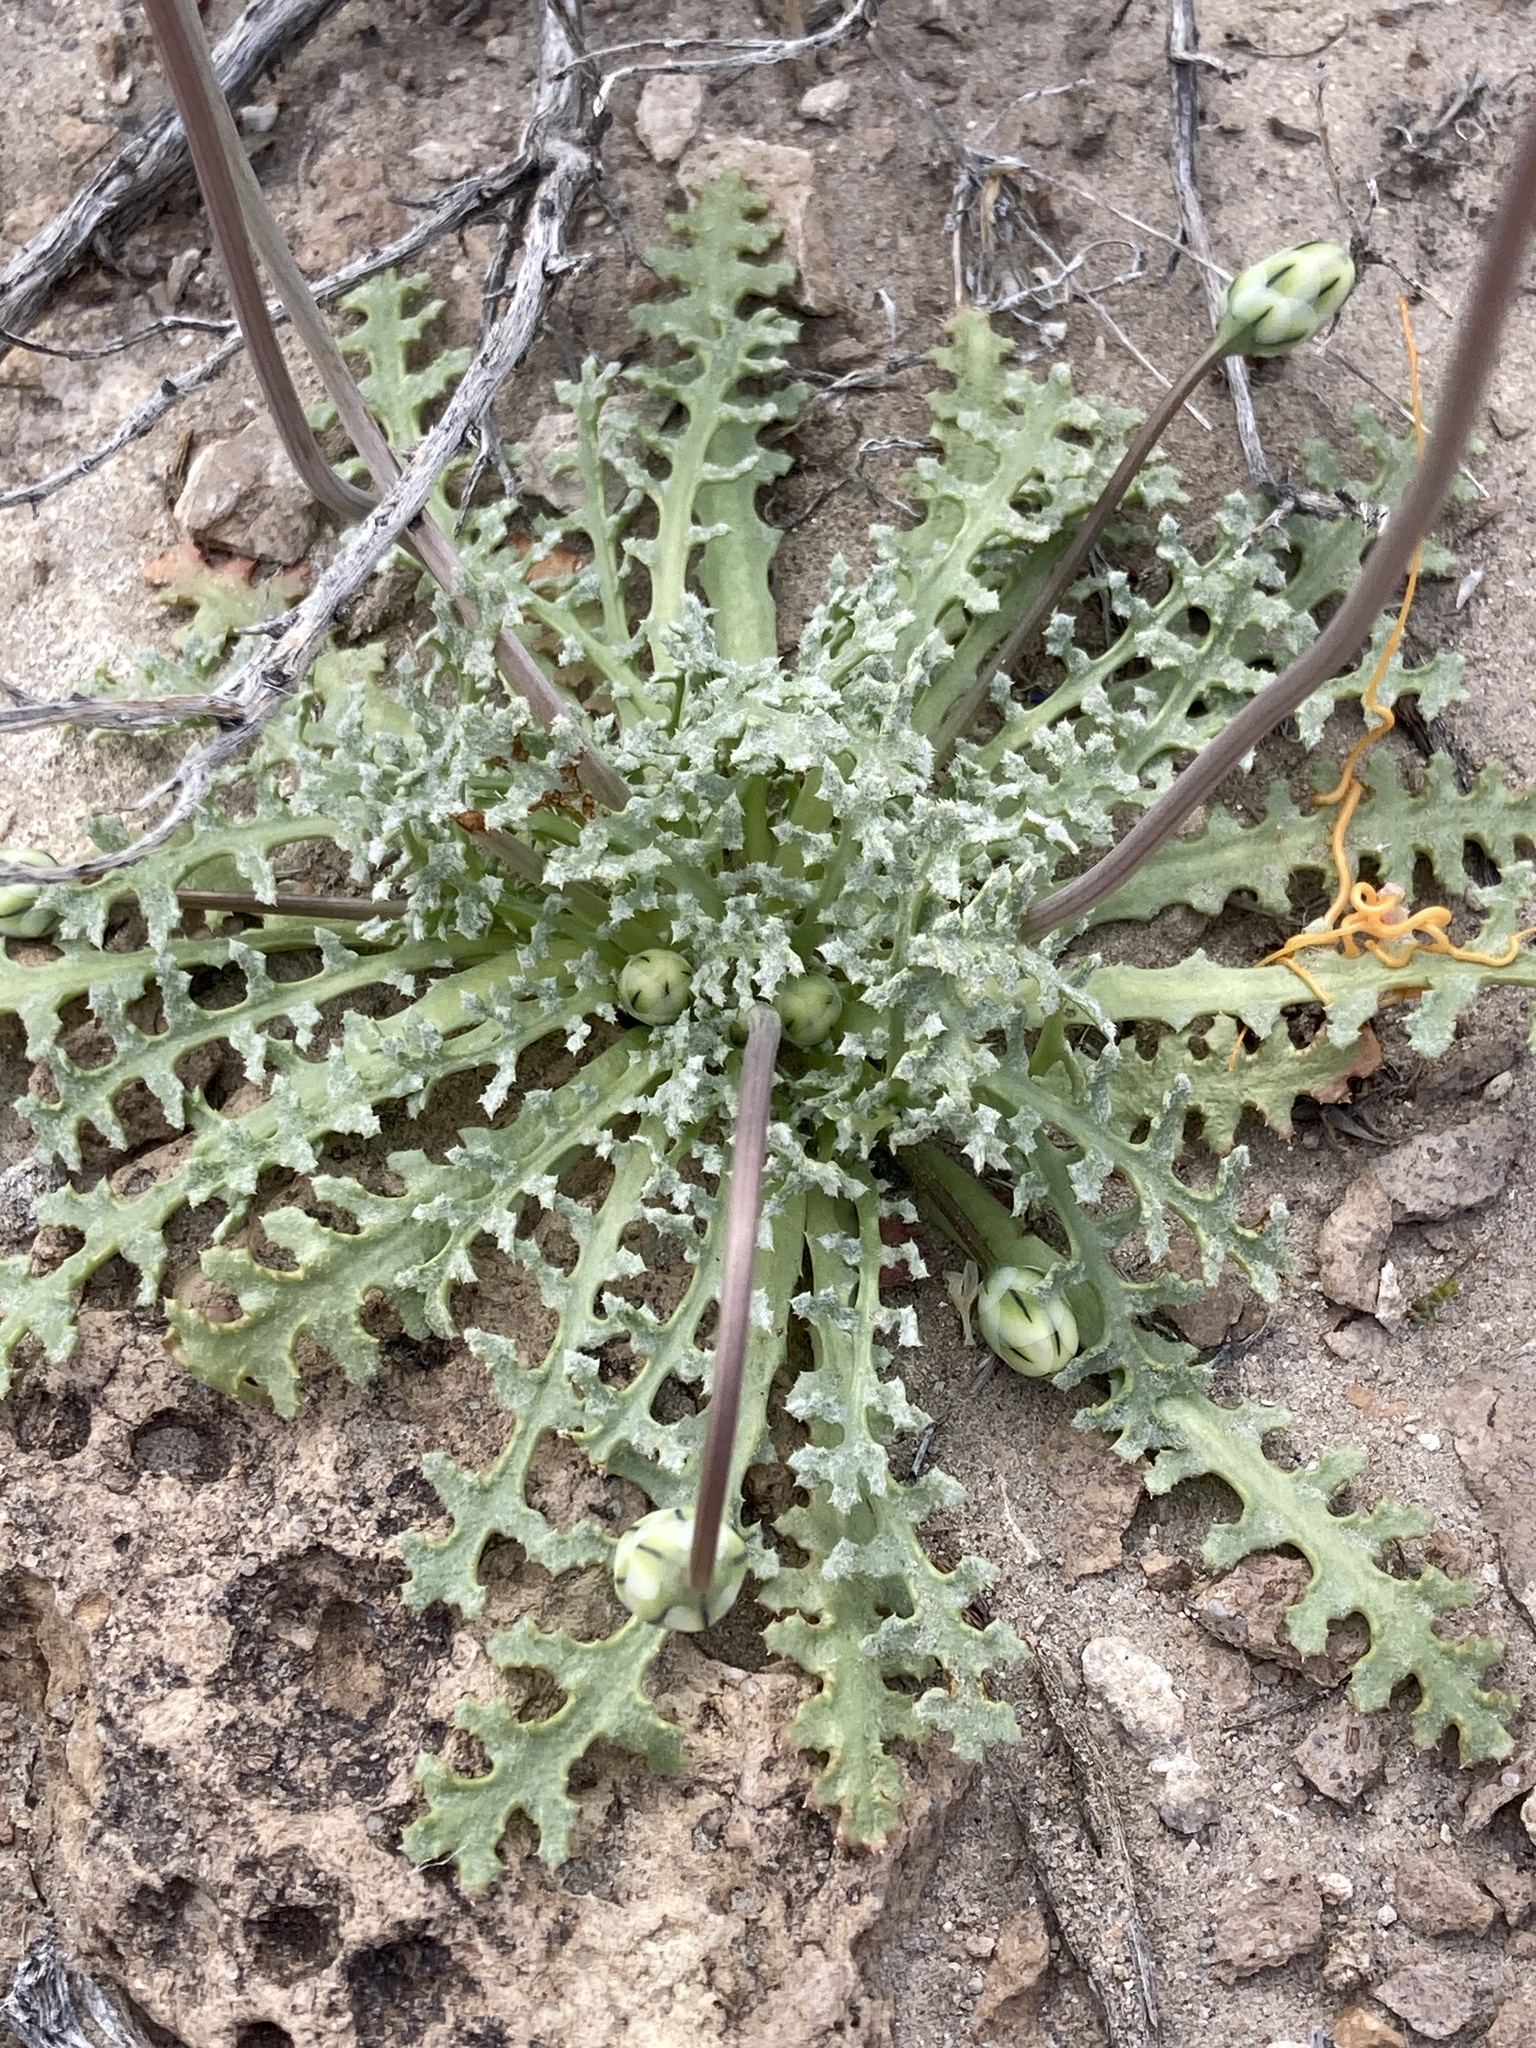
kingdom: Plantae
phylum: Tracheophyta
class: Magnoliopsida
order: Asterales
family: Asteraceae
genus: Anisocoma
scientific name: Anisocoma acaulis
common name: Scalebud
